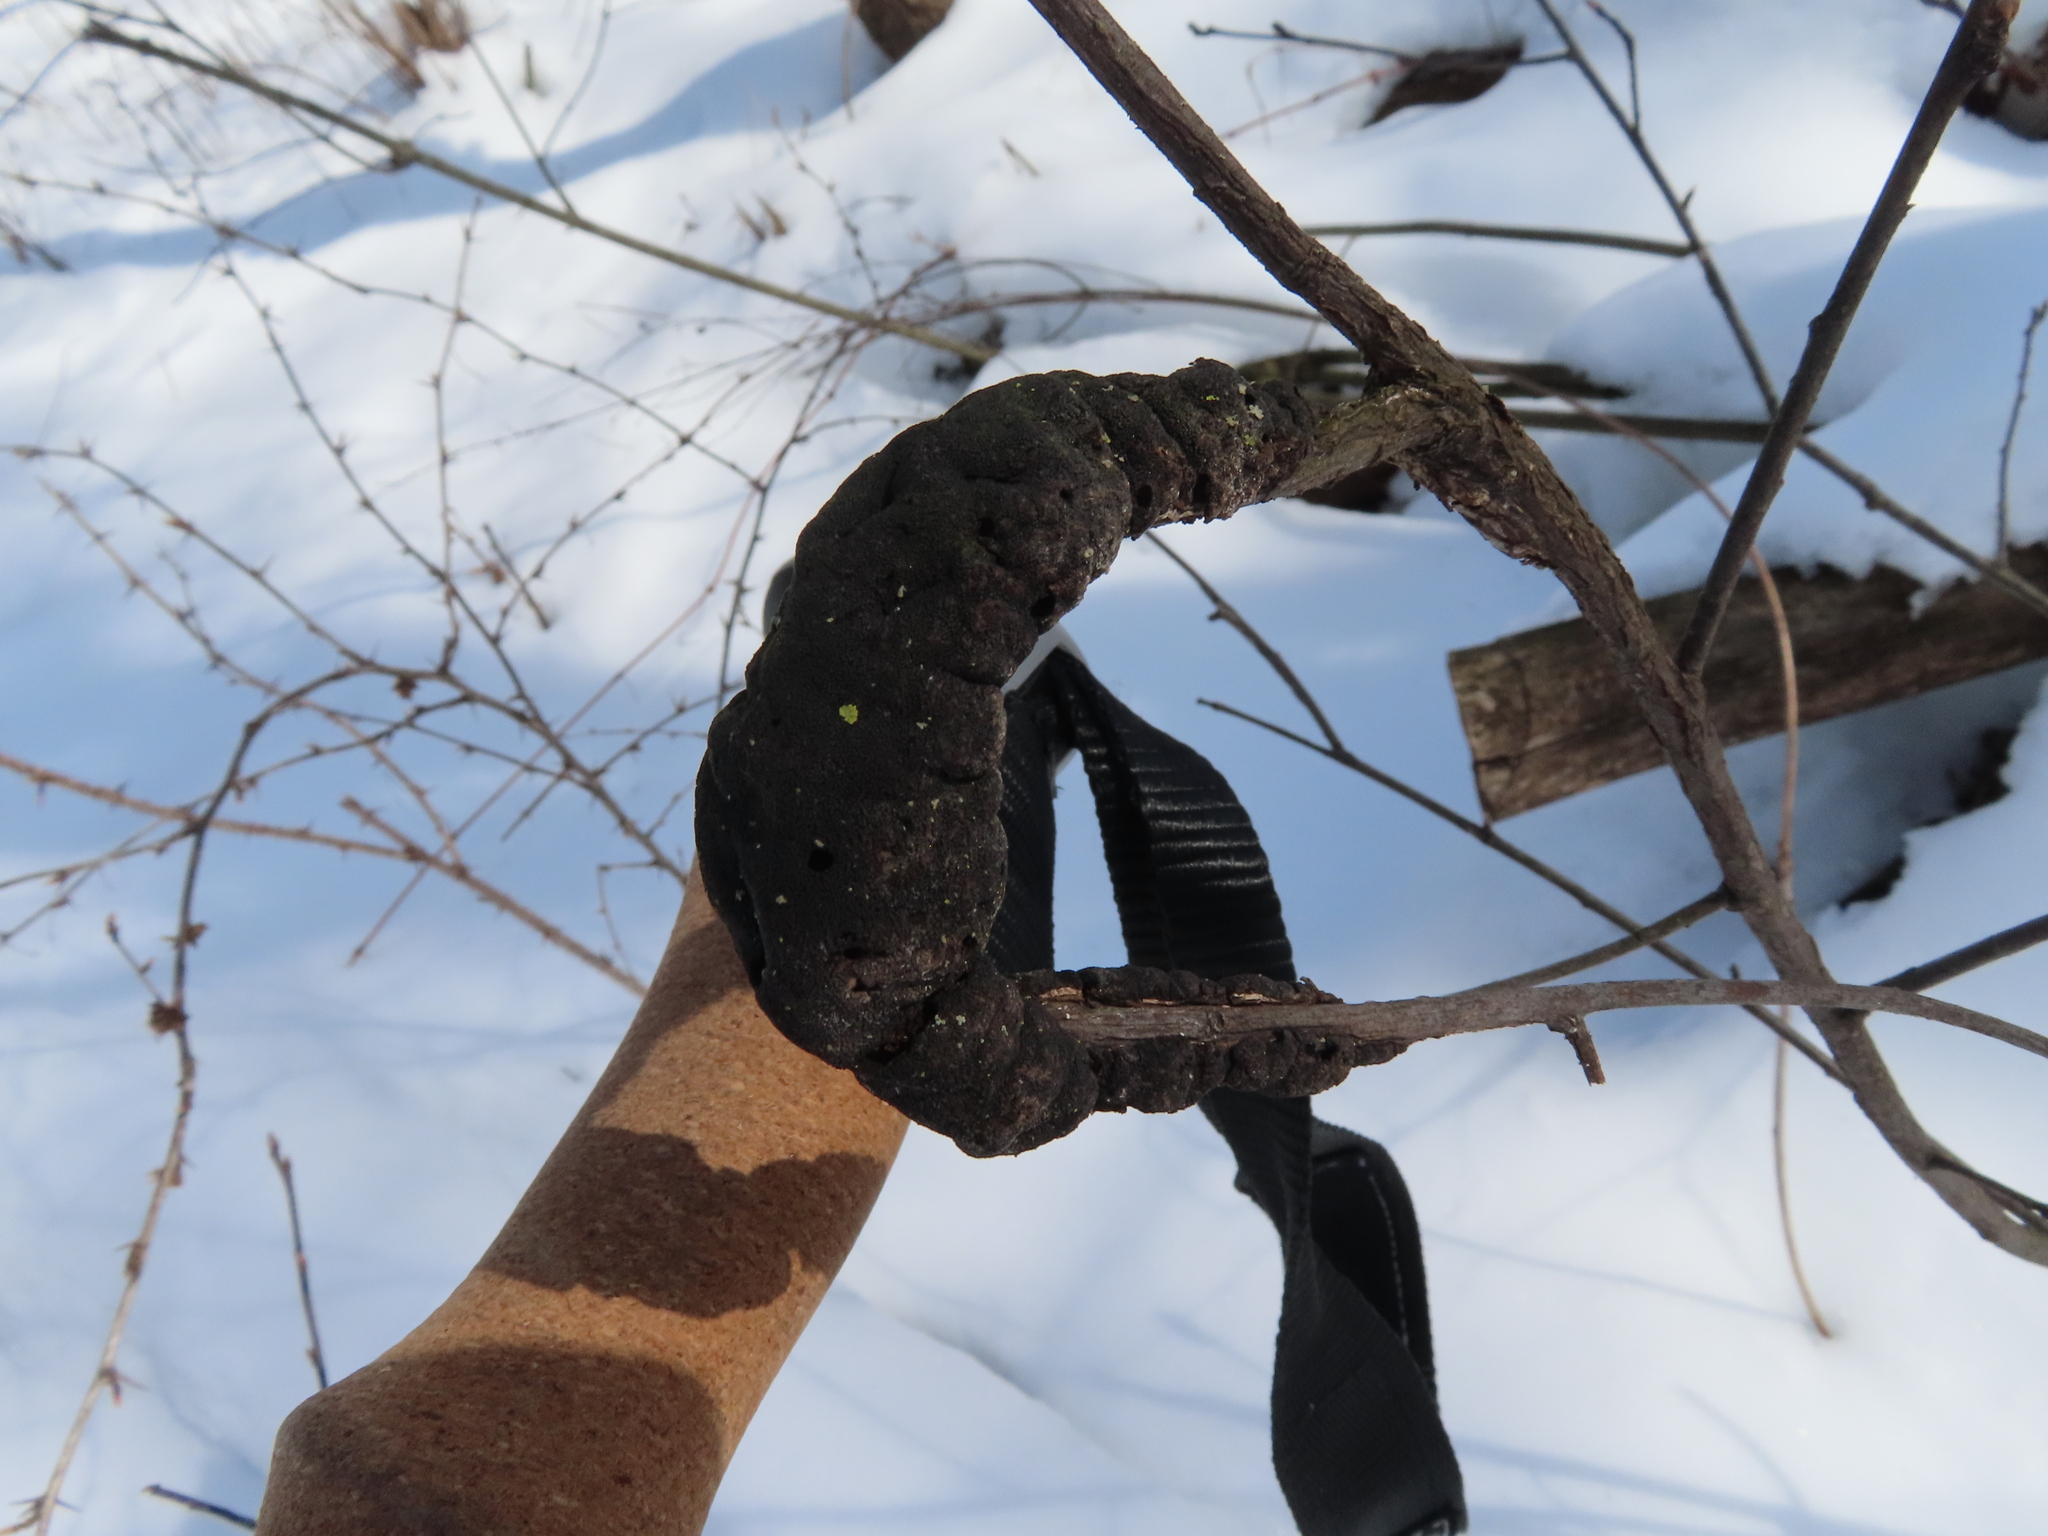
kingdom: Fungi
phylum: Ascomycota
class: Dothideomycetes
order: Venturiales
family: Venturiaceae
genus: Apiosporina
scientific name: Apiosporina morbosa
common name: Black knot
